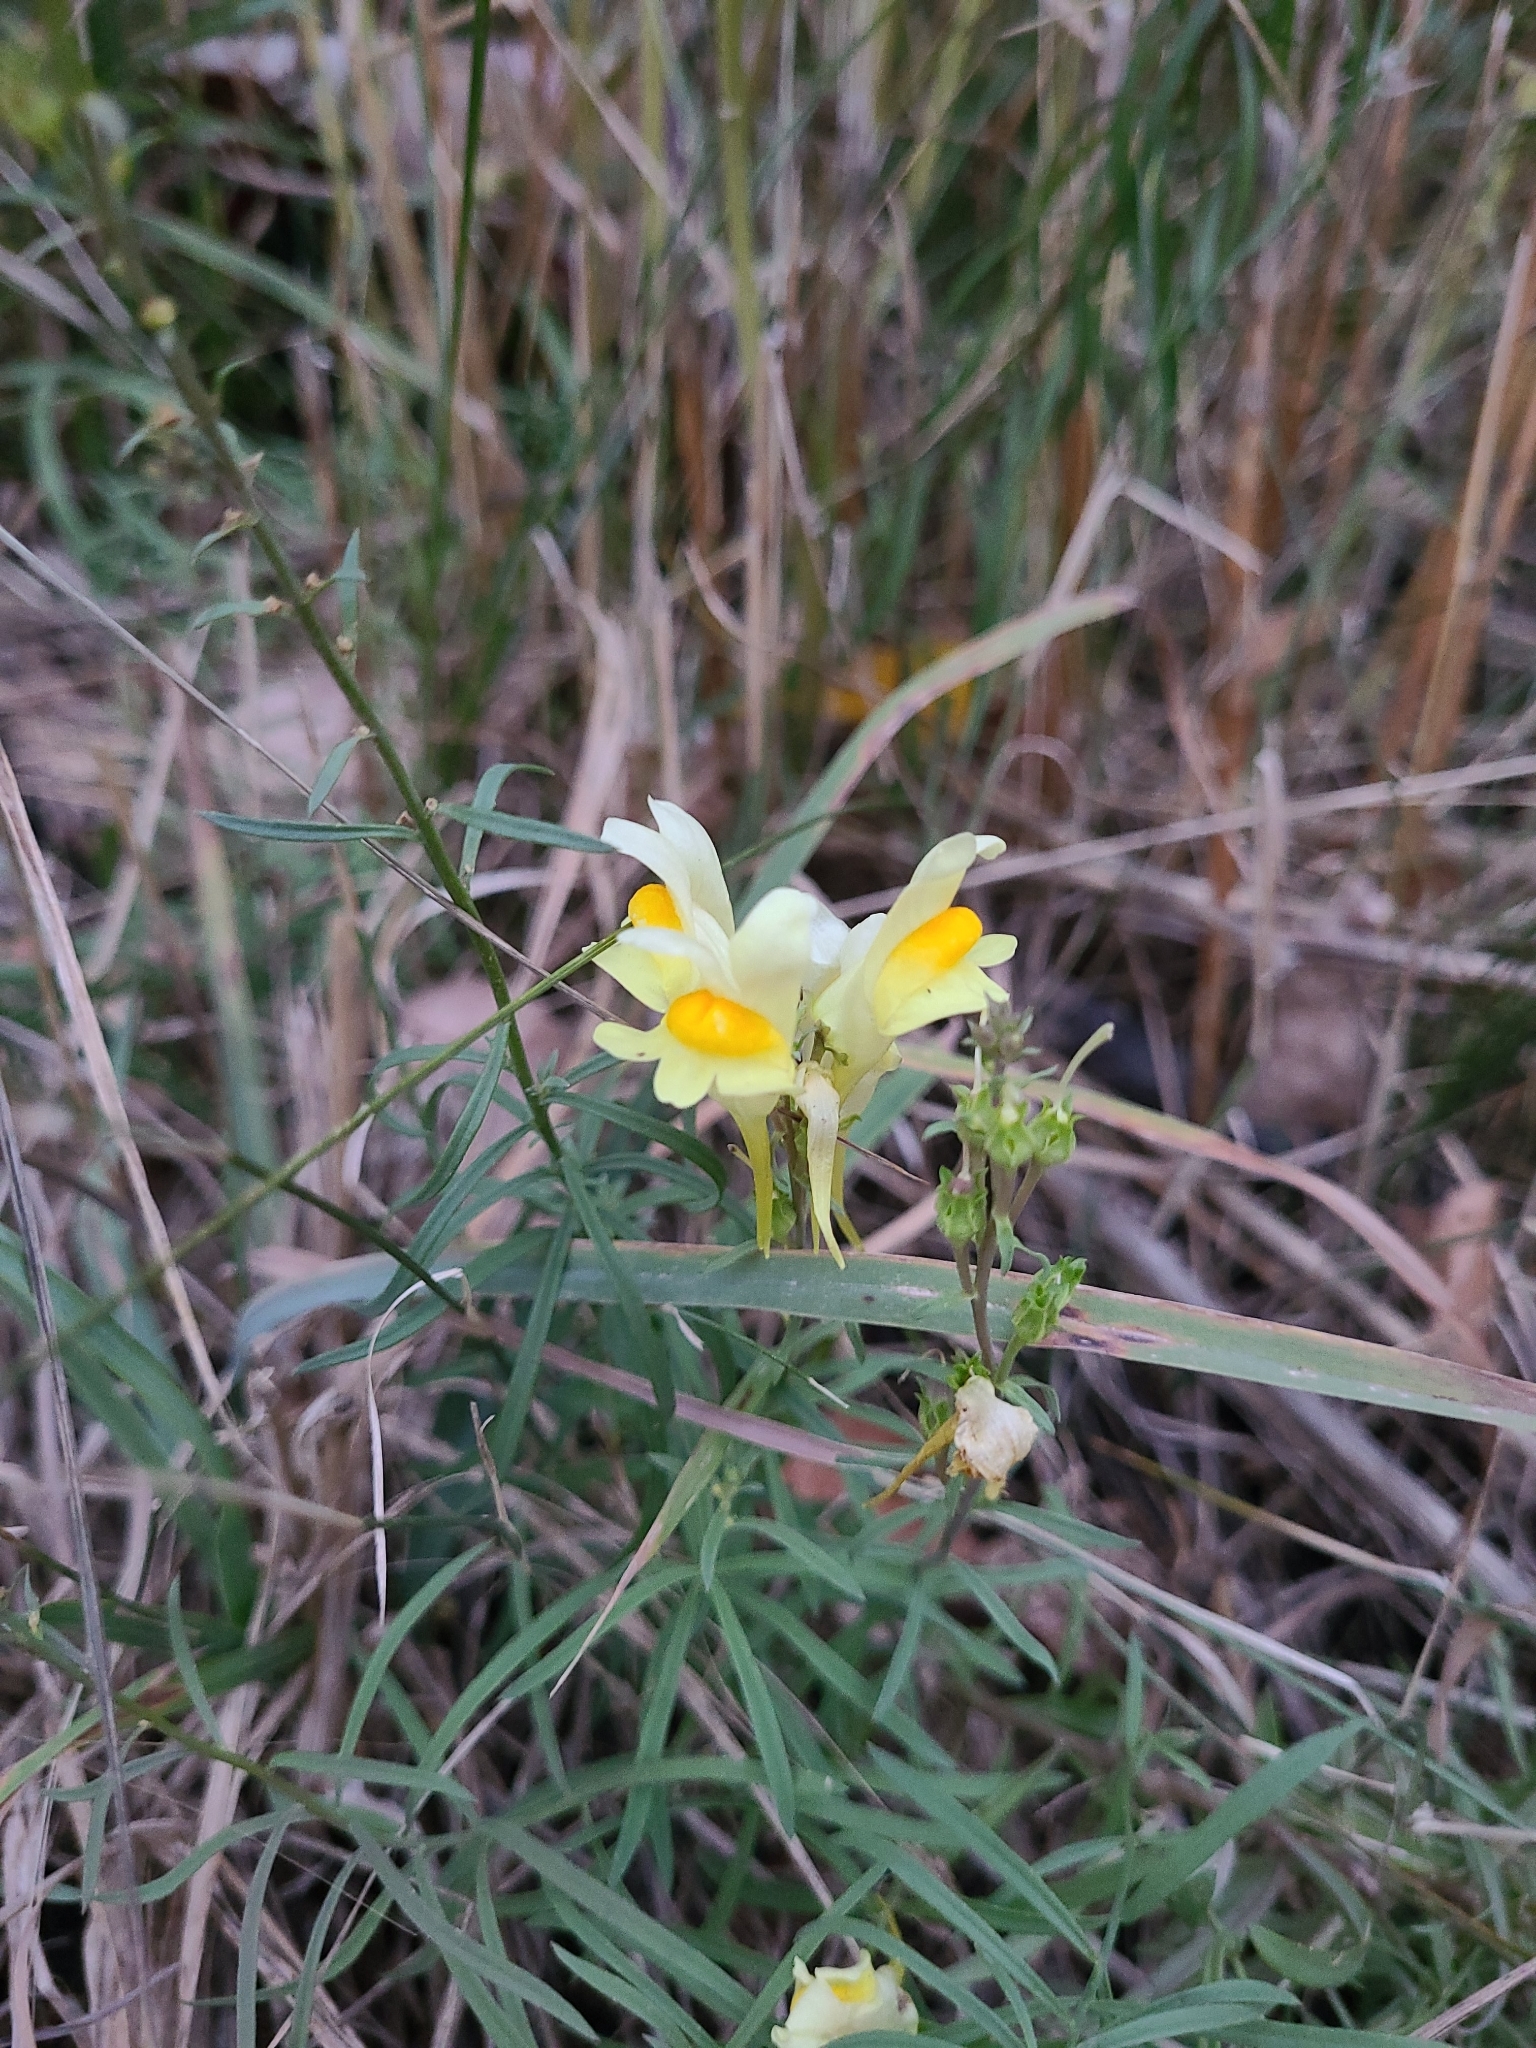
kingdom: Plantae
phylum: Tracheophyta
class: Magnoliopsida
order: Lamiales
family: Plantaginaceae
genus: Linaria
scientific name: Linaria vulgaris
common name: Butter and eggs
